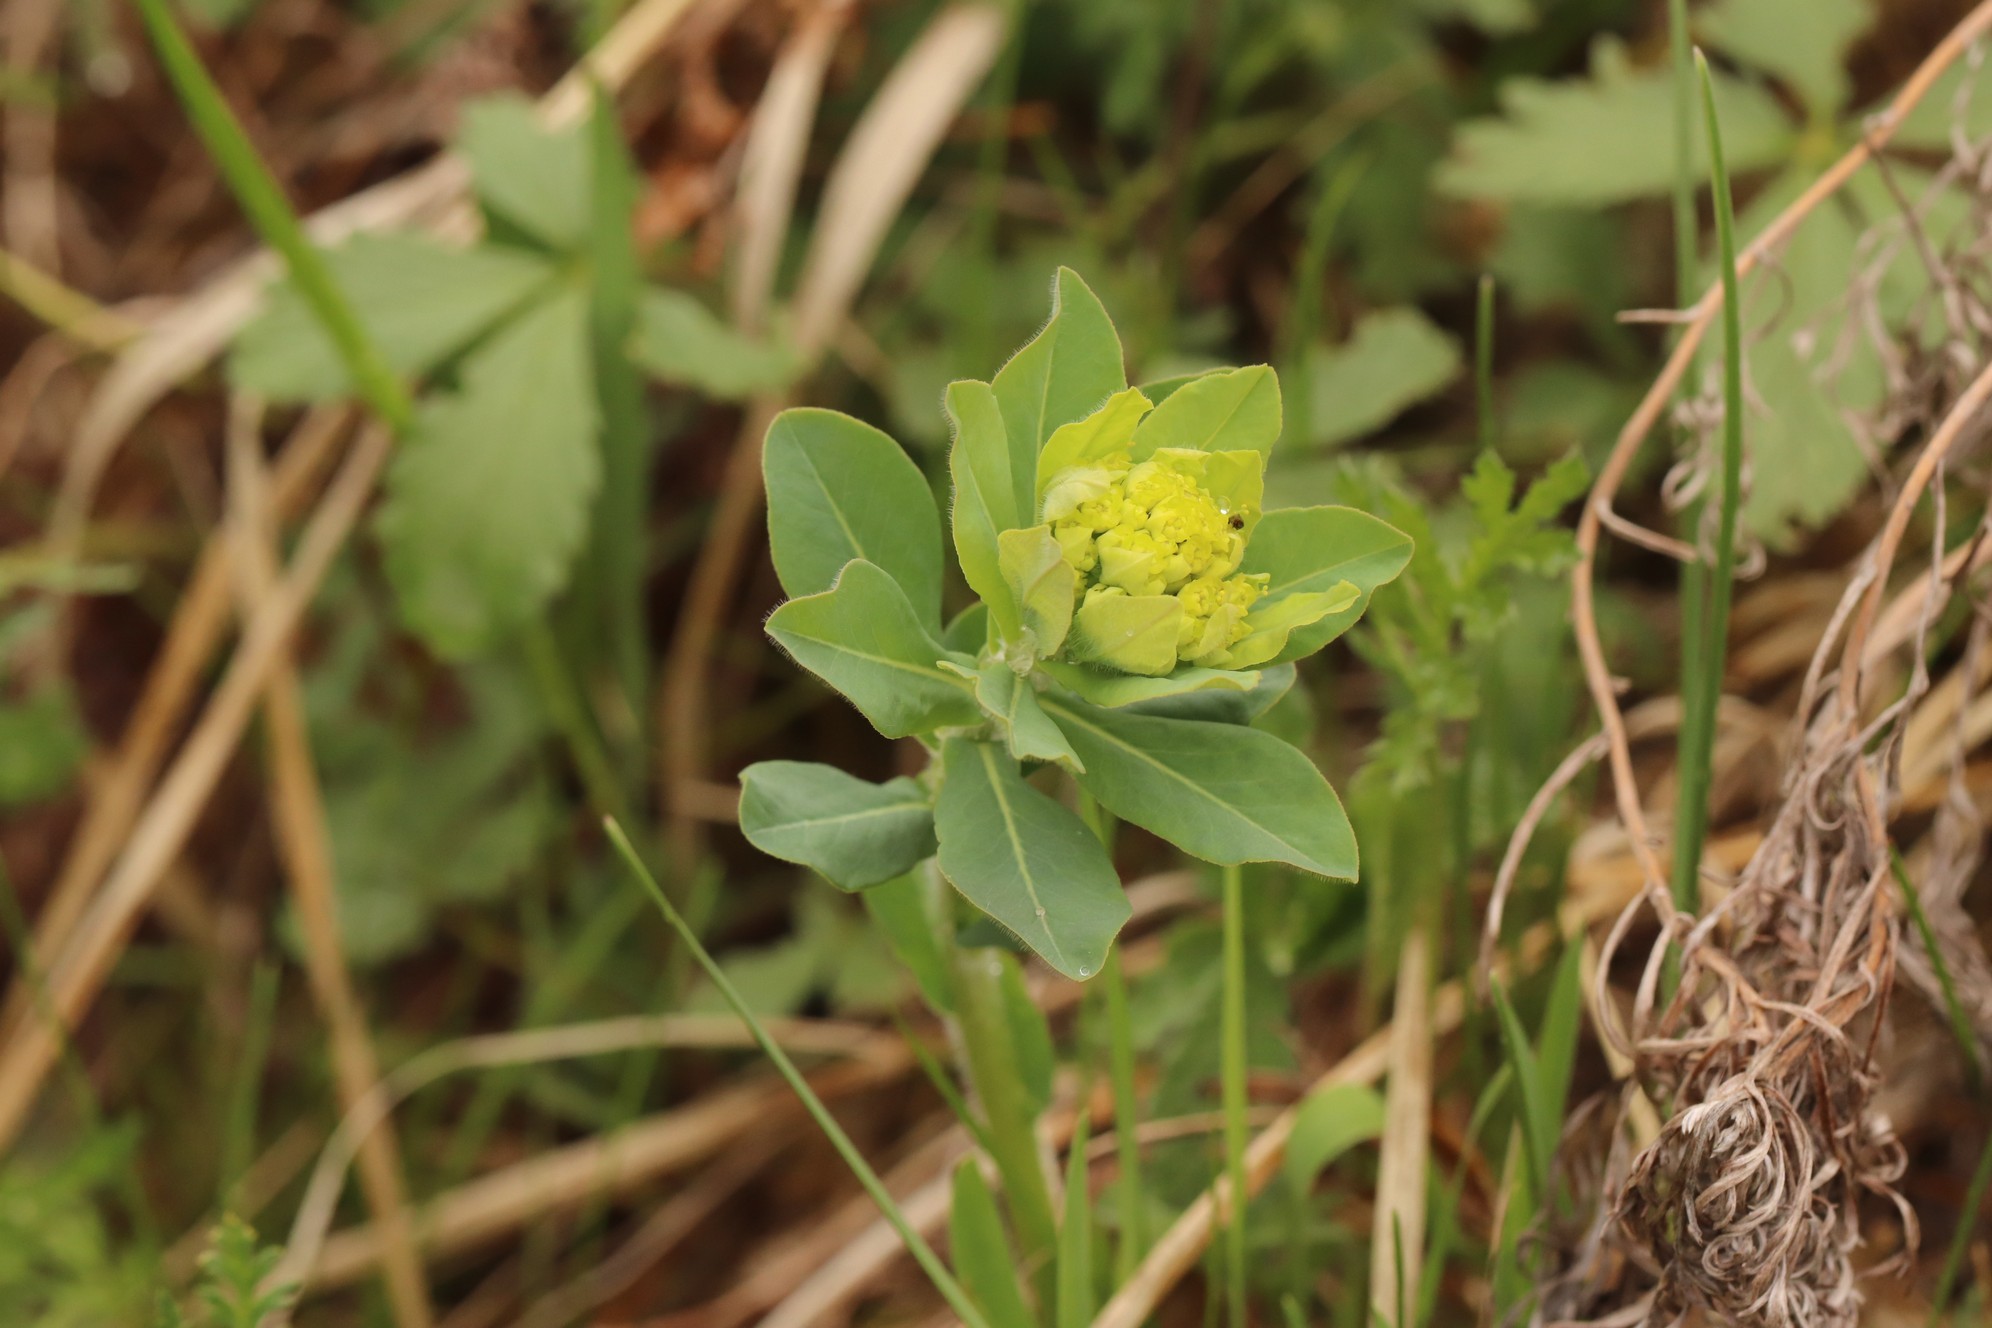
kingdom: Plantae
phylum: Tracheophyta
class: Magnoliopsida
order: Malpighiales
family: Euphorbiaceae
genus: Euphorbia
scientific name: Euphorbia pilosa
